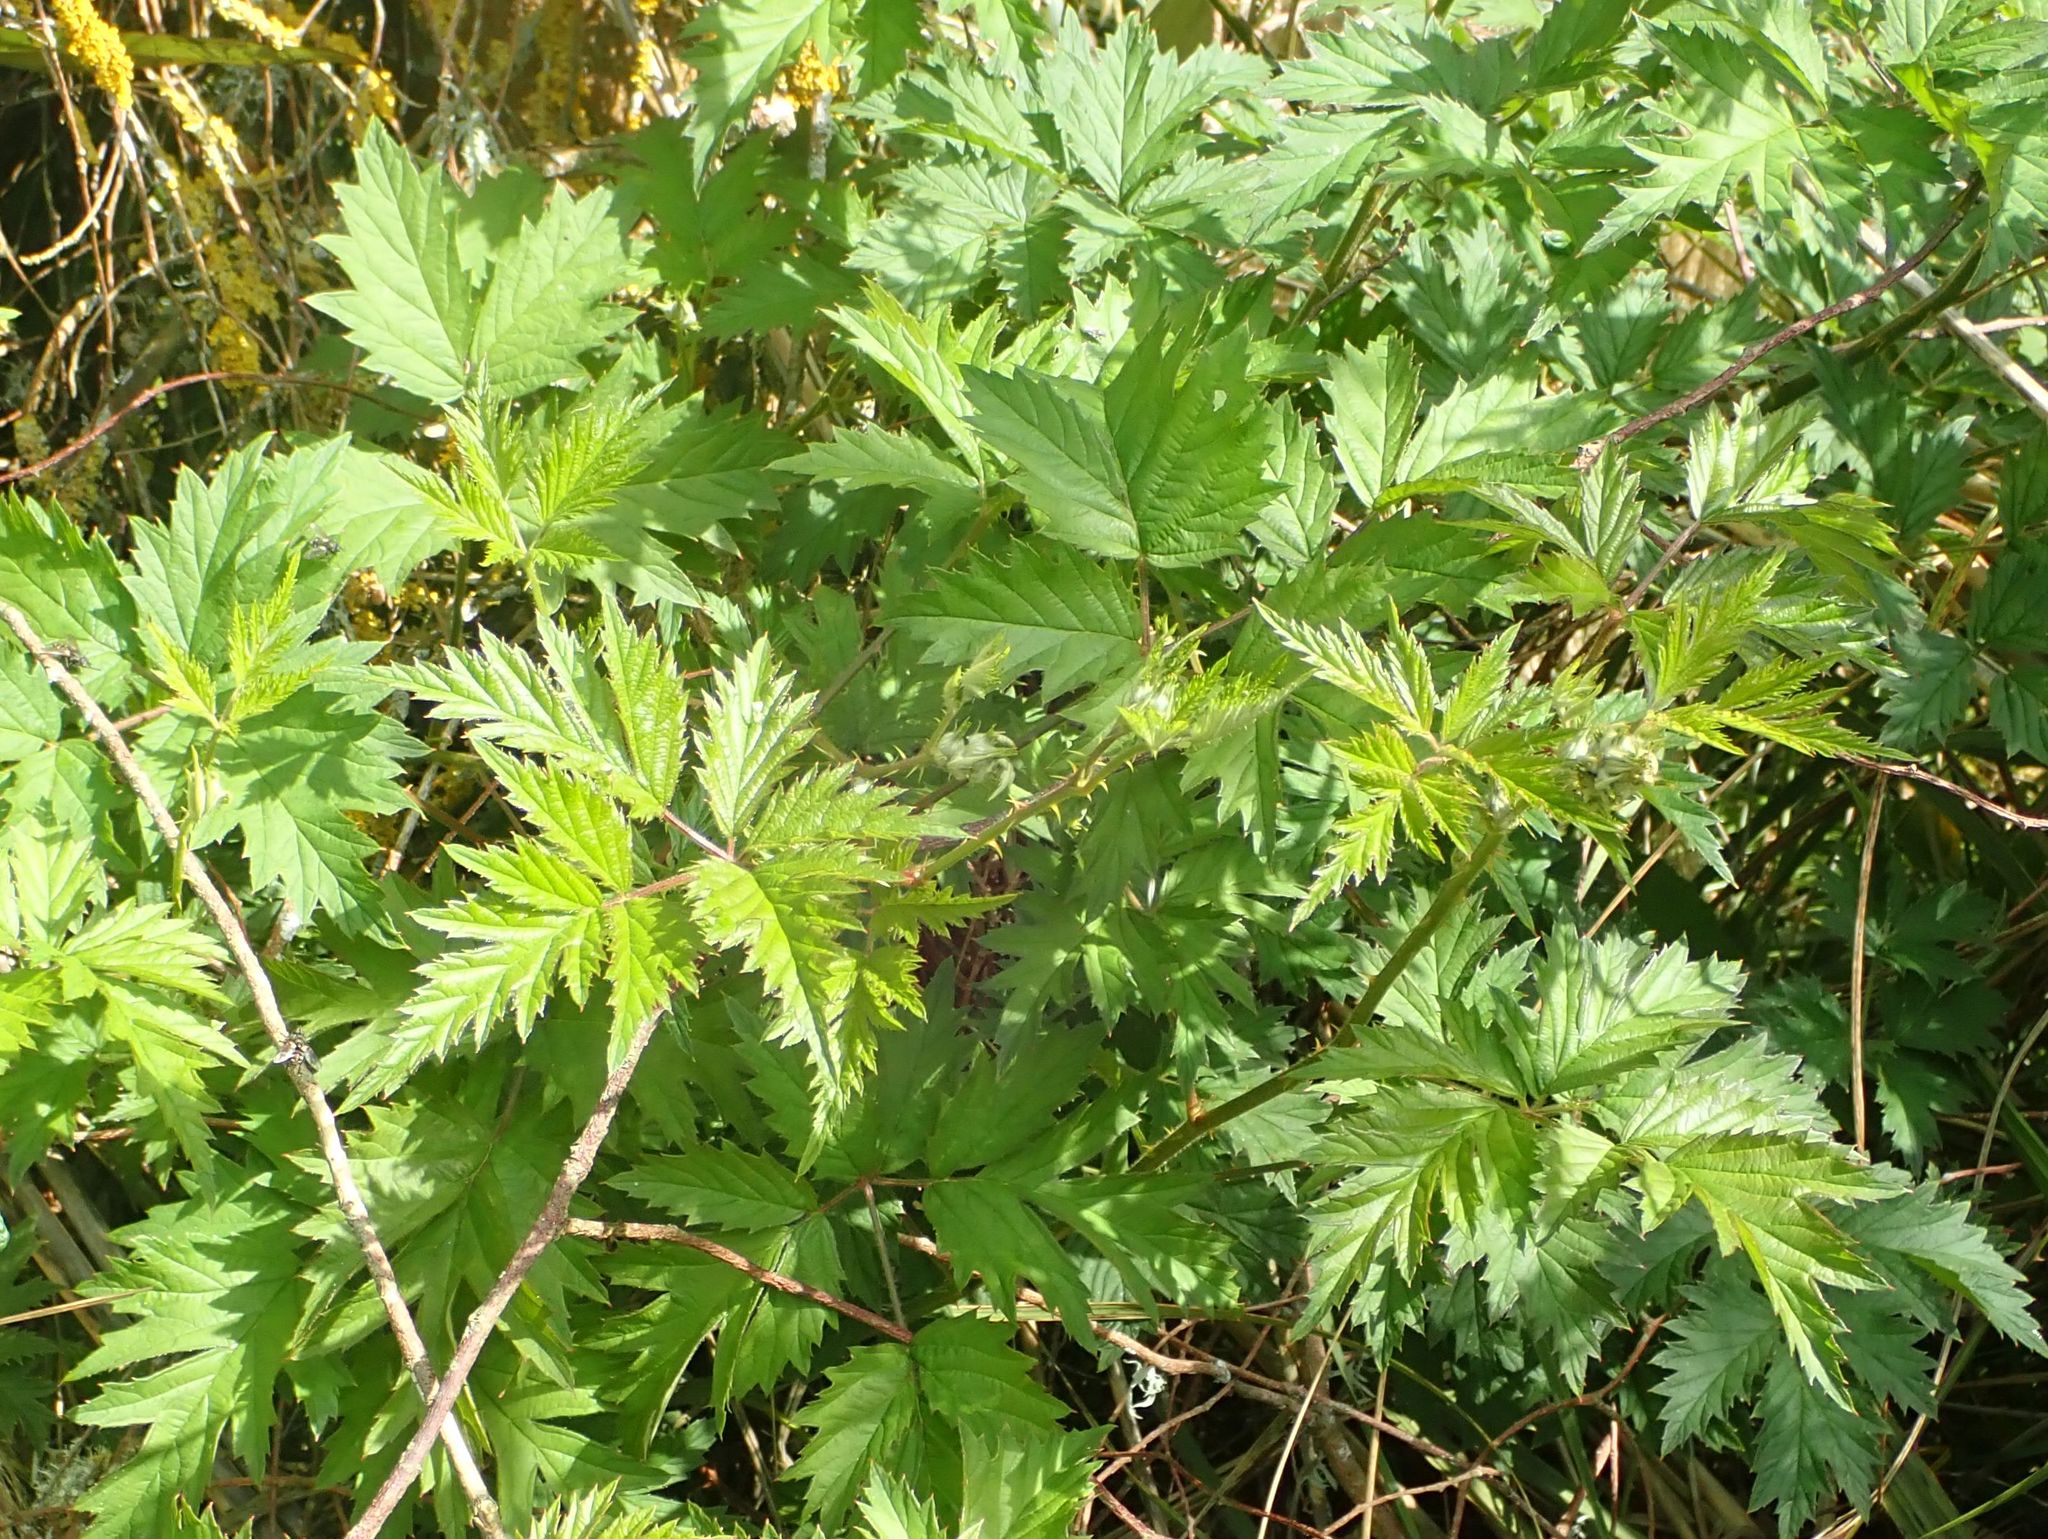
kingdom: Plantae
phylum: Tracheophyta
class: Magnoliopsida
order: Rosales
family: Rosaceae
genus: Rubus
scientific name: Rubus laciniatus
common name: Evergreen blackberry
